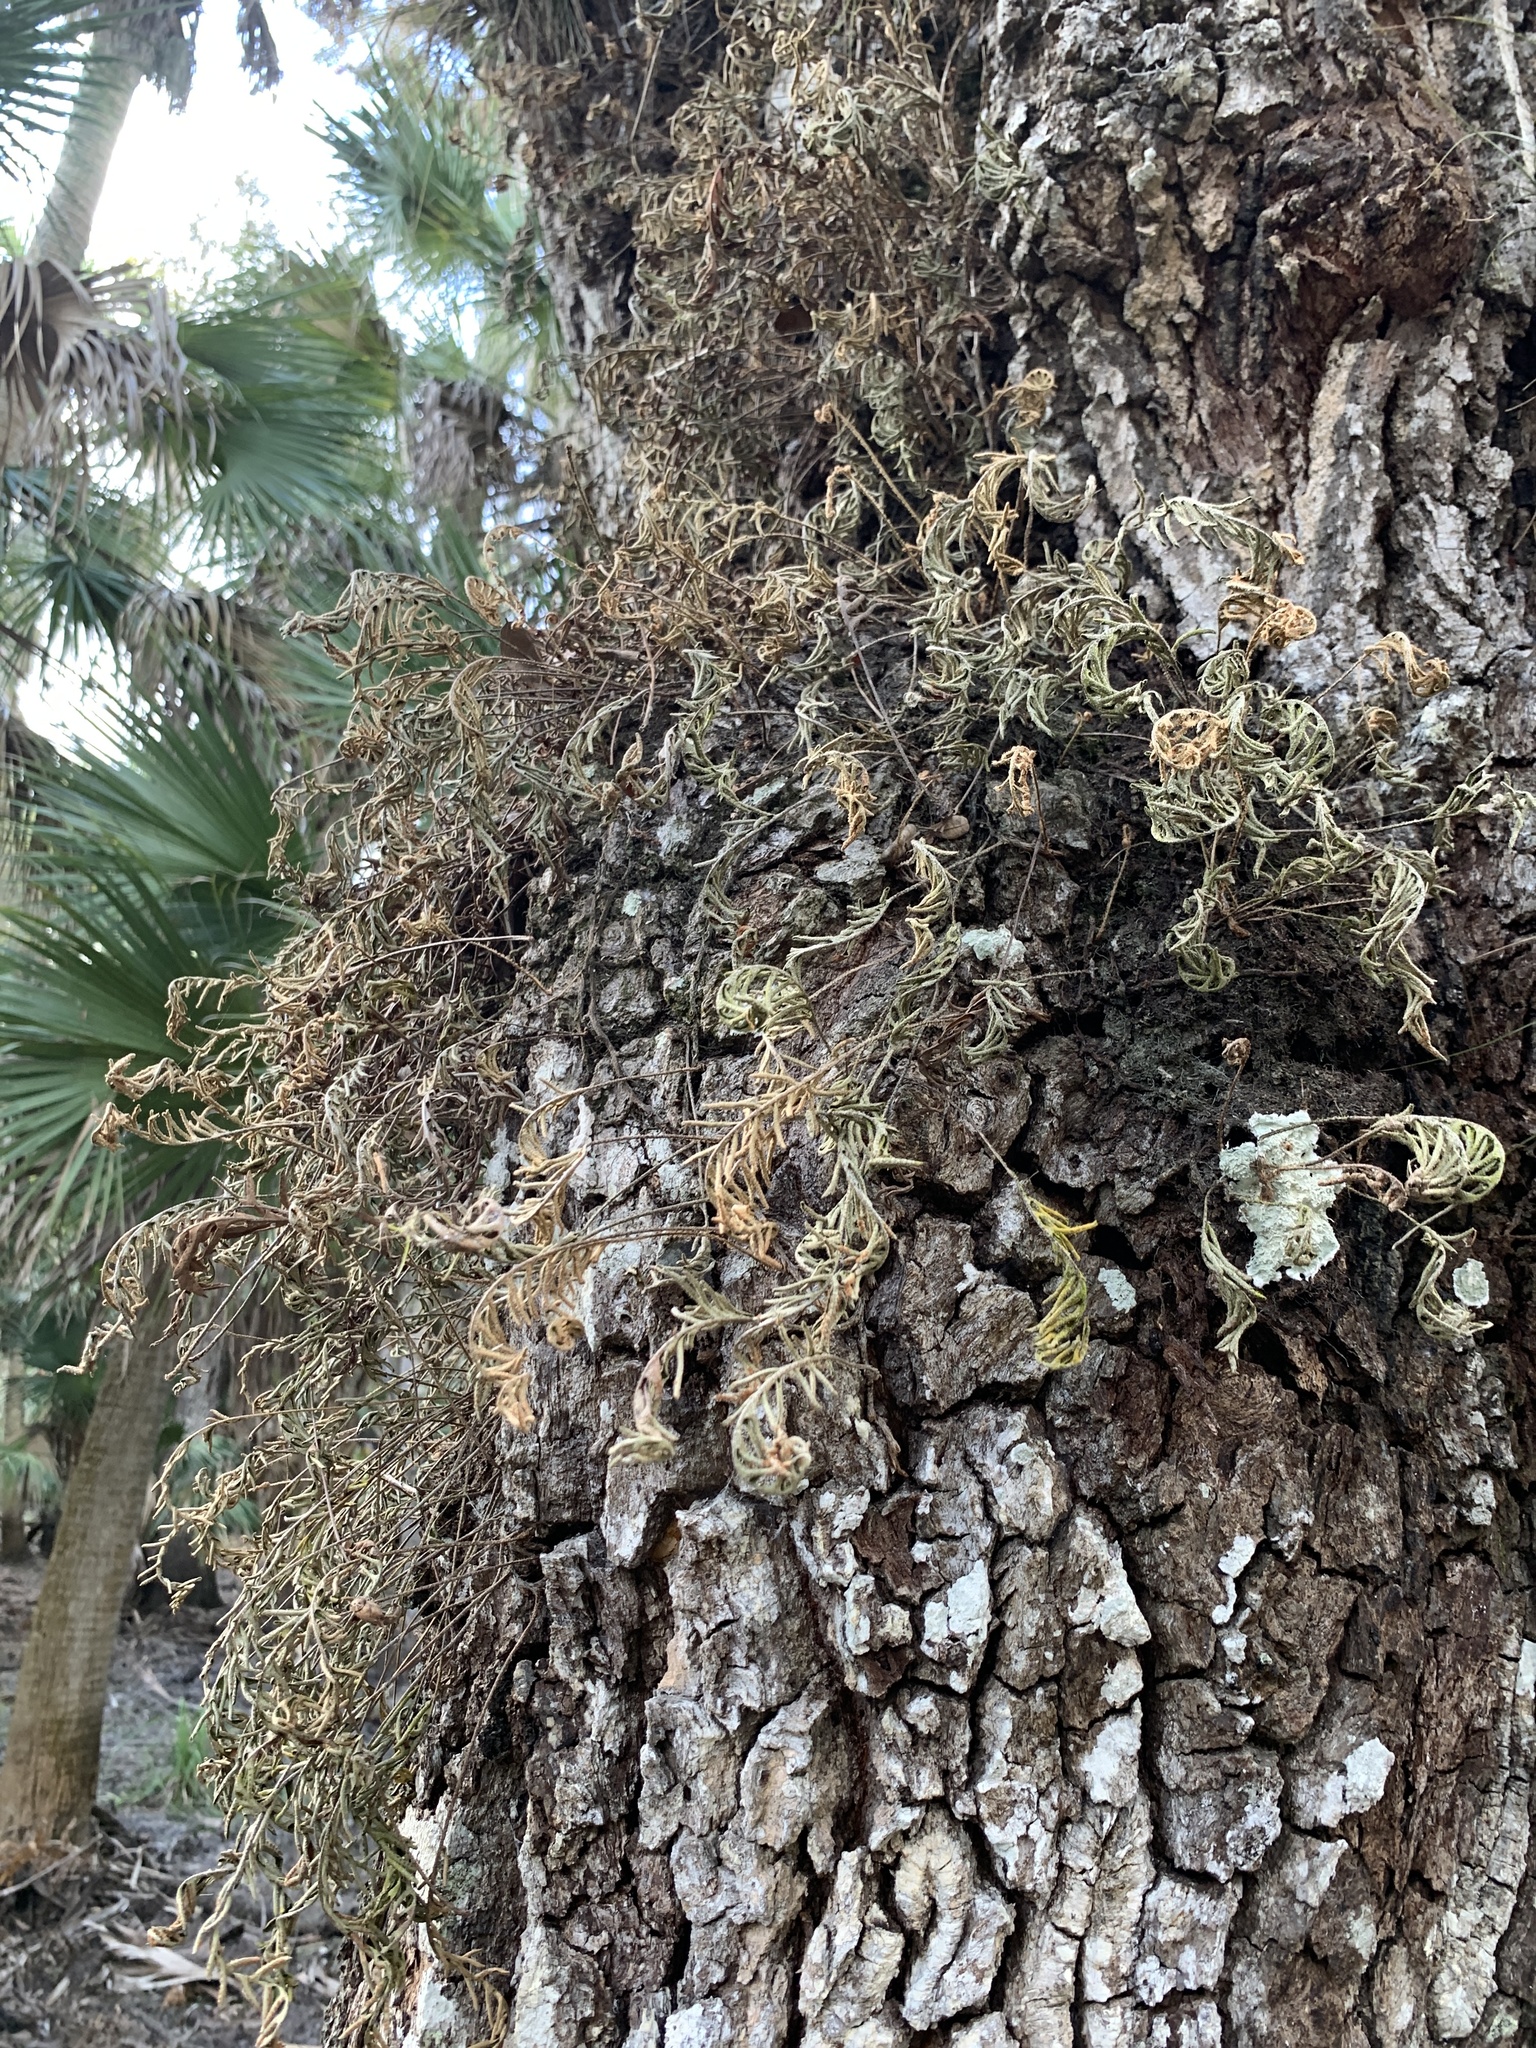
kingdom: Plantae
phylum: Tracheophyta
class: Polypodiopsida
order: Polypodiales
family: Polypodiaceae
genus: Pleopeltis
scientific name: Pleopeltis michauxiana
